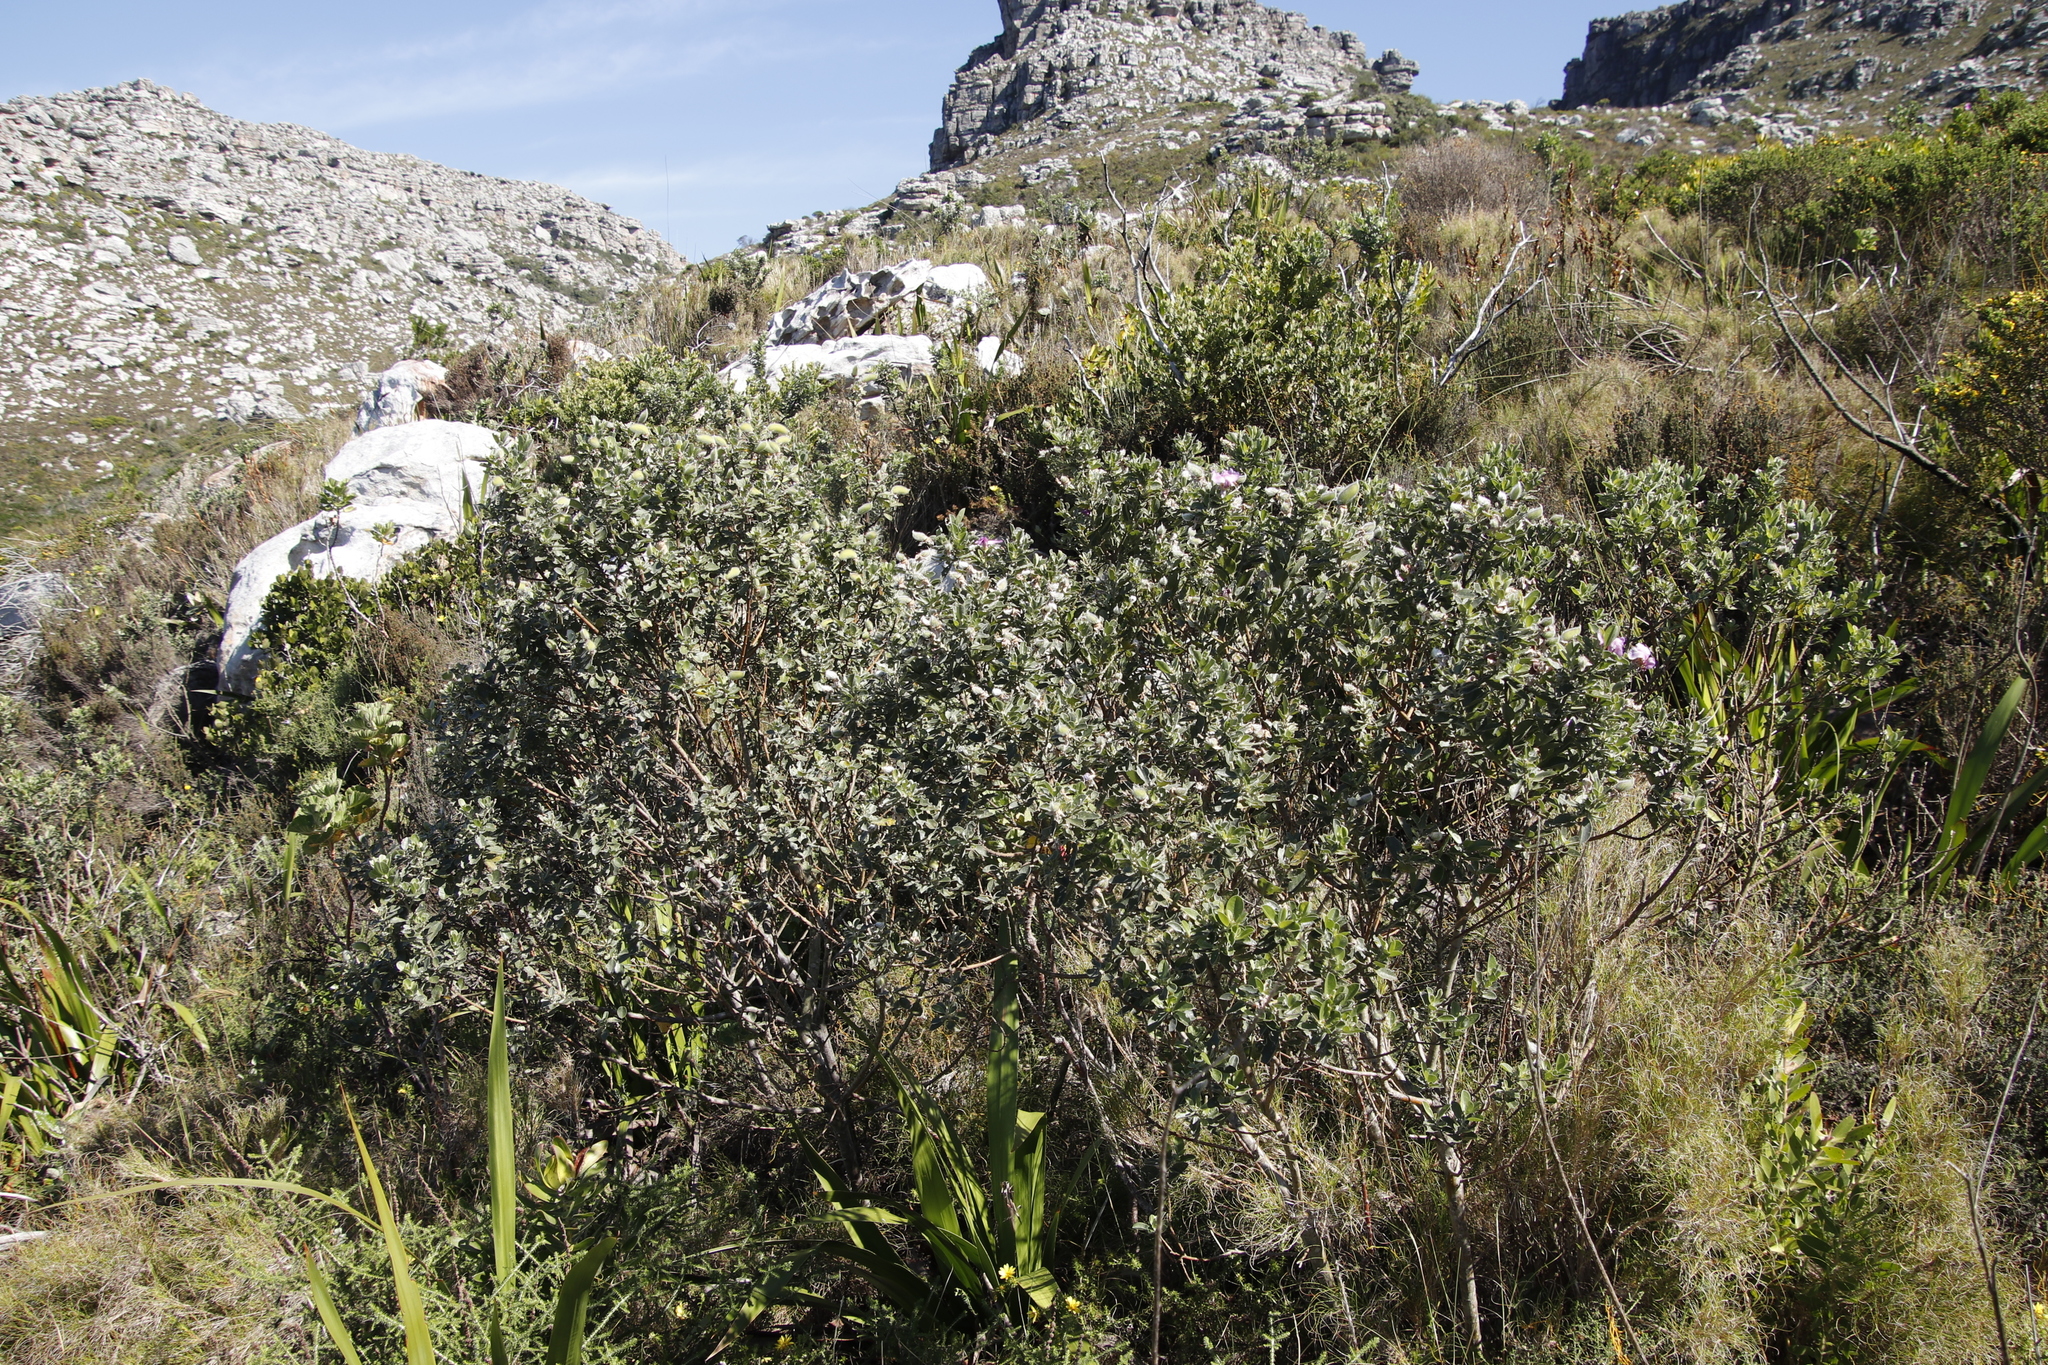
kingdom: Plantae
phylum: Tracheophyta
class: Magnoliopsida
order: Fabales
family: Fabaceae
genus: Podalyria
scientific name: Podalyria calyptrata
